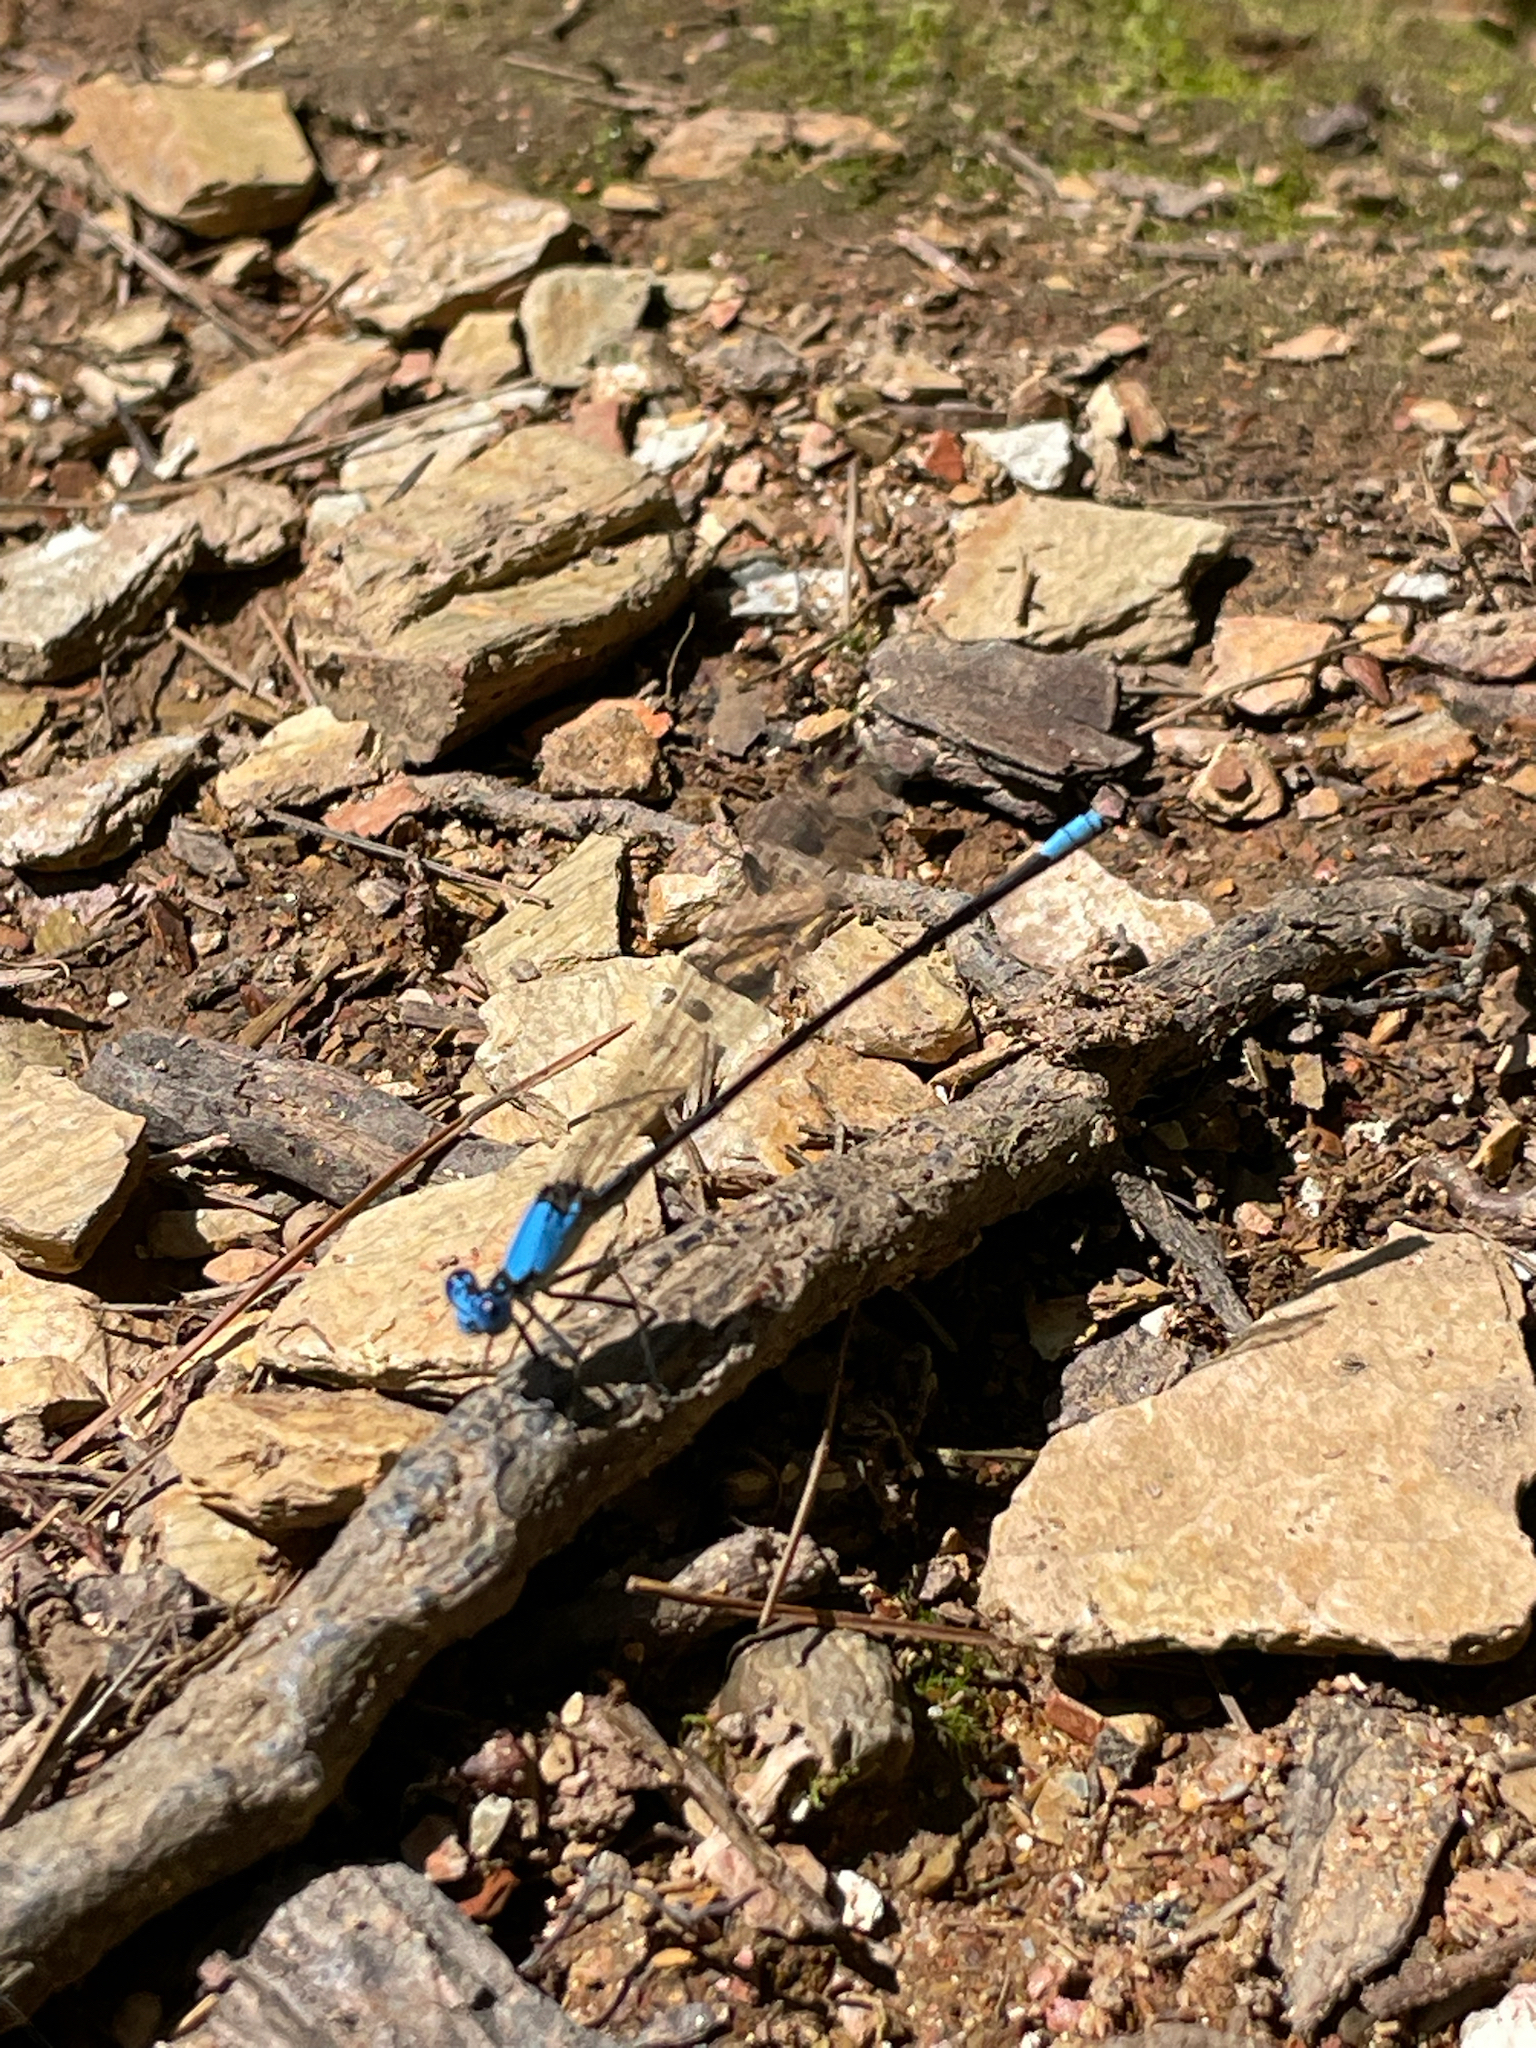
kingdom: Animalia
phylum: Arthropoda
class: Insecta
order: Odonata
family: Coenagrionidae
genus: Argia
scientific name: Argia apicalis
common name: Blue-fronted dancer
